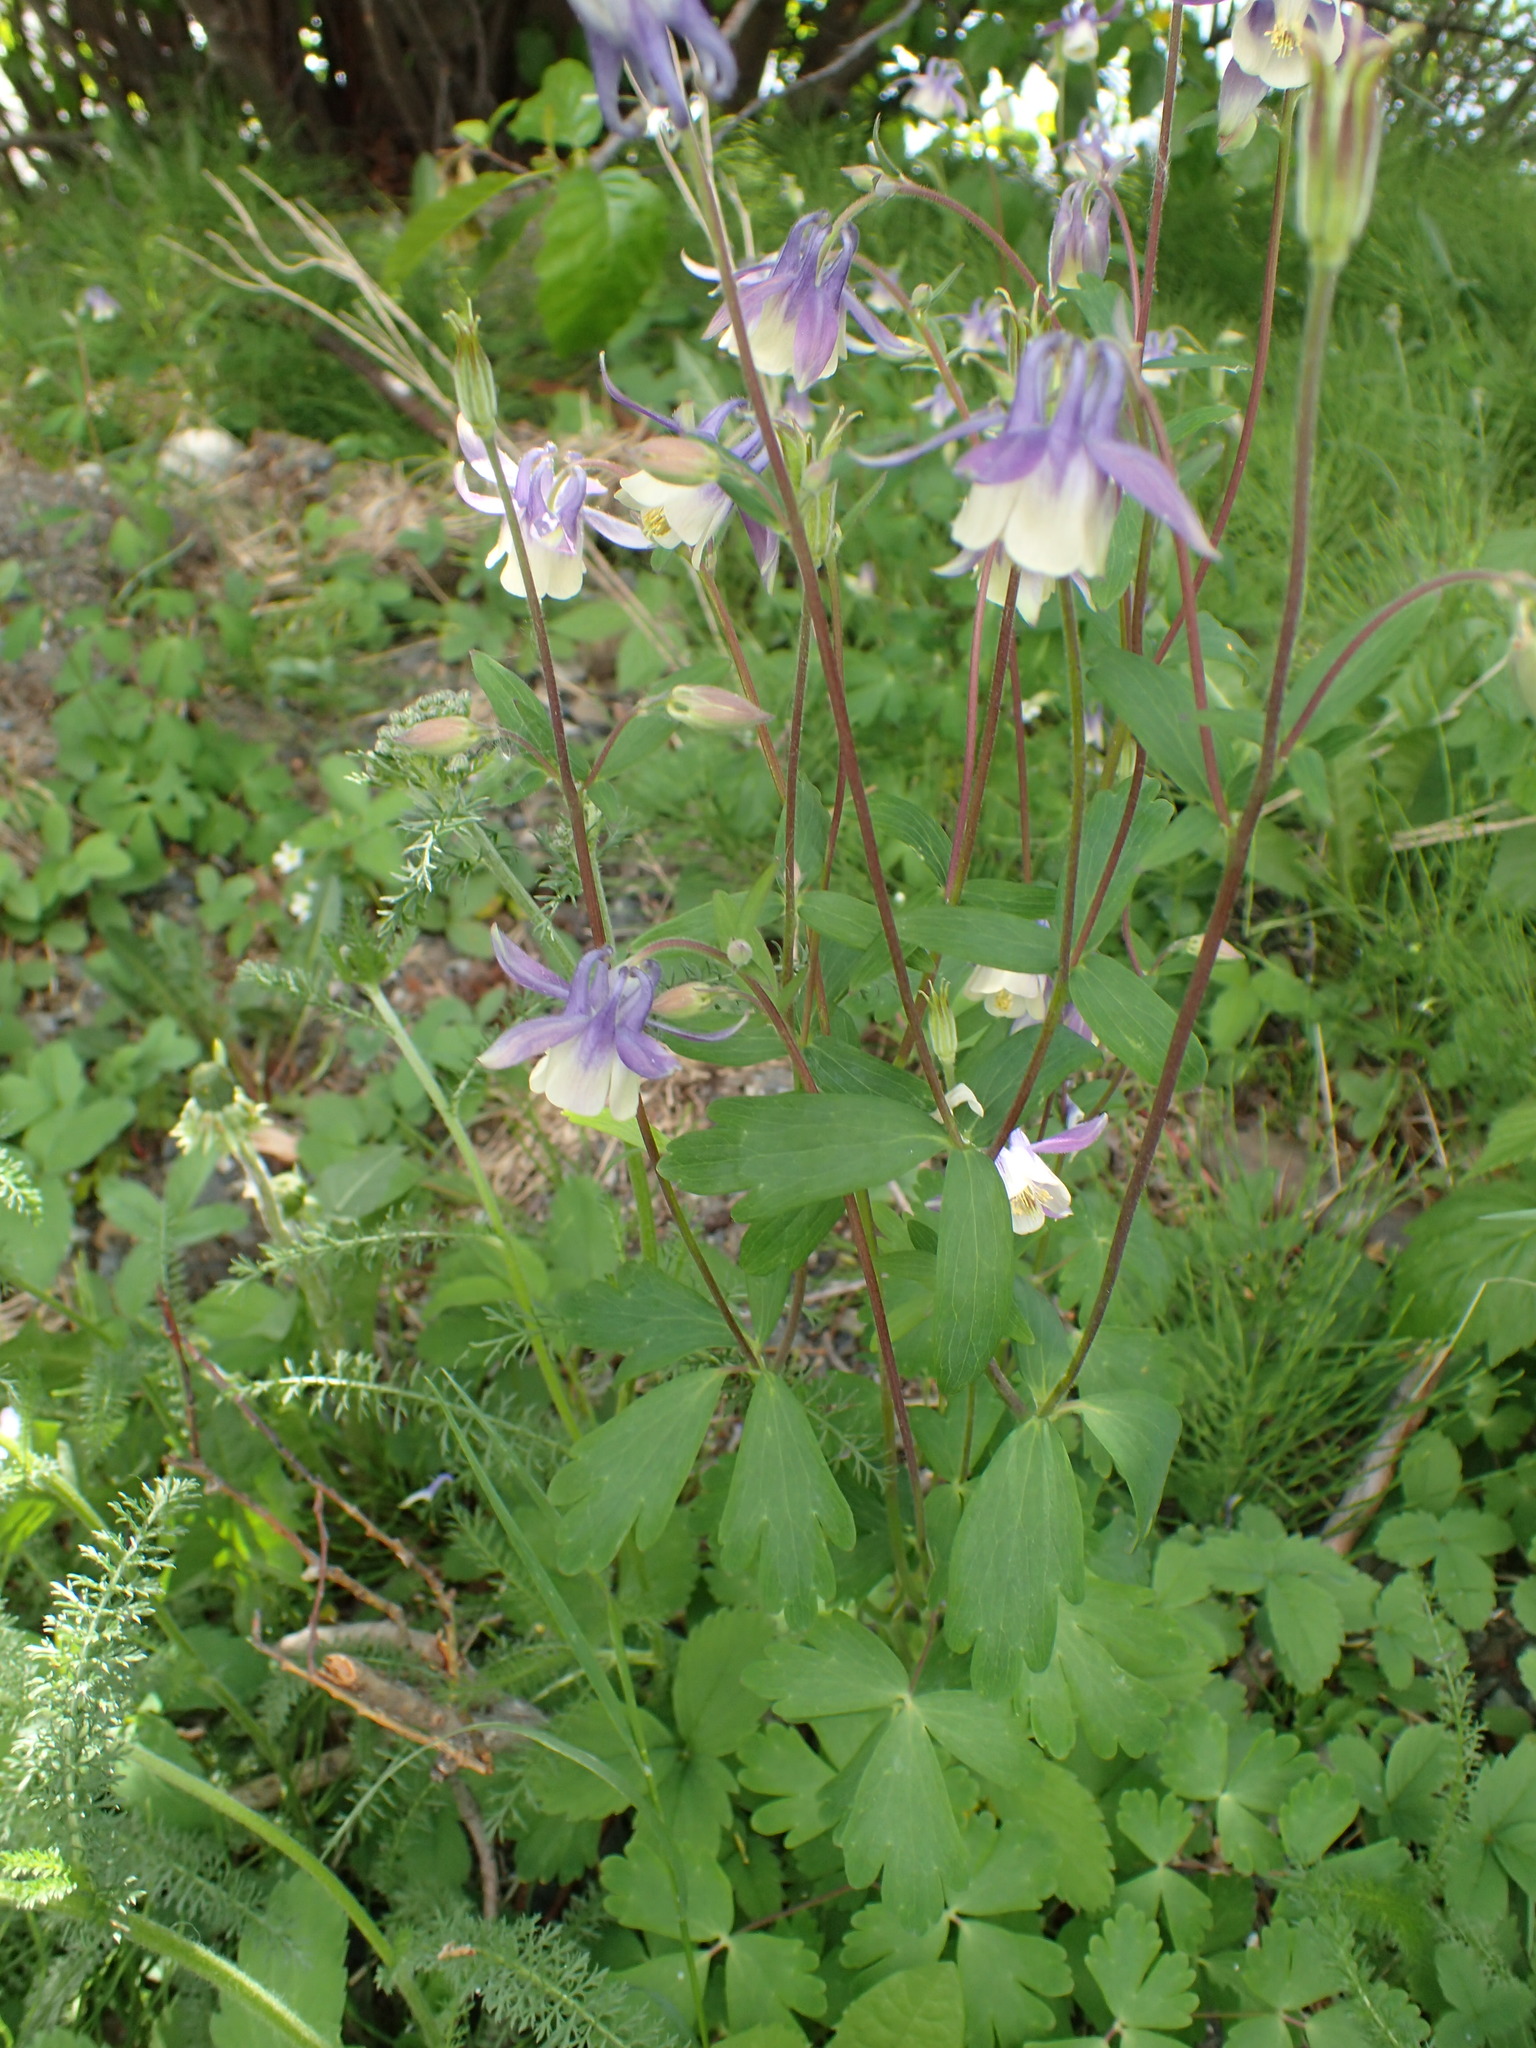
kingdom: Plantae
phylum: Tracheophyta
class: Magnoliopsida
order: Ranunculales
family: Ranunculaceae
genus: Aquilegia
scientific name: Aquilegia brevistyla
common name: Yukon columbine
